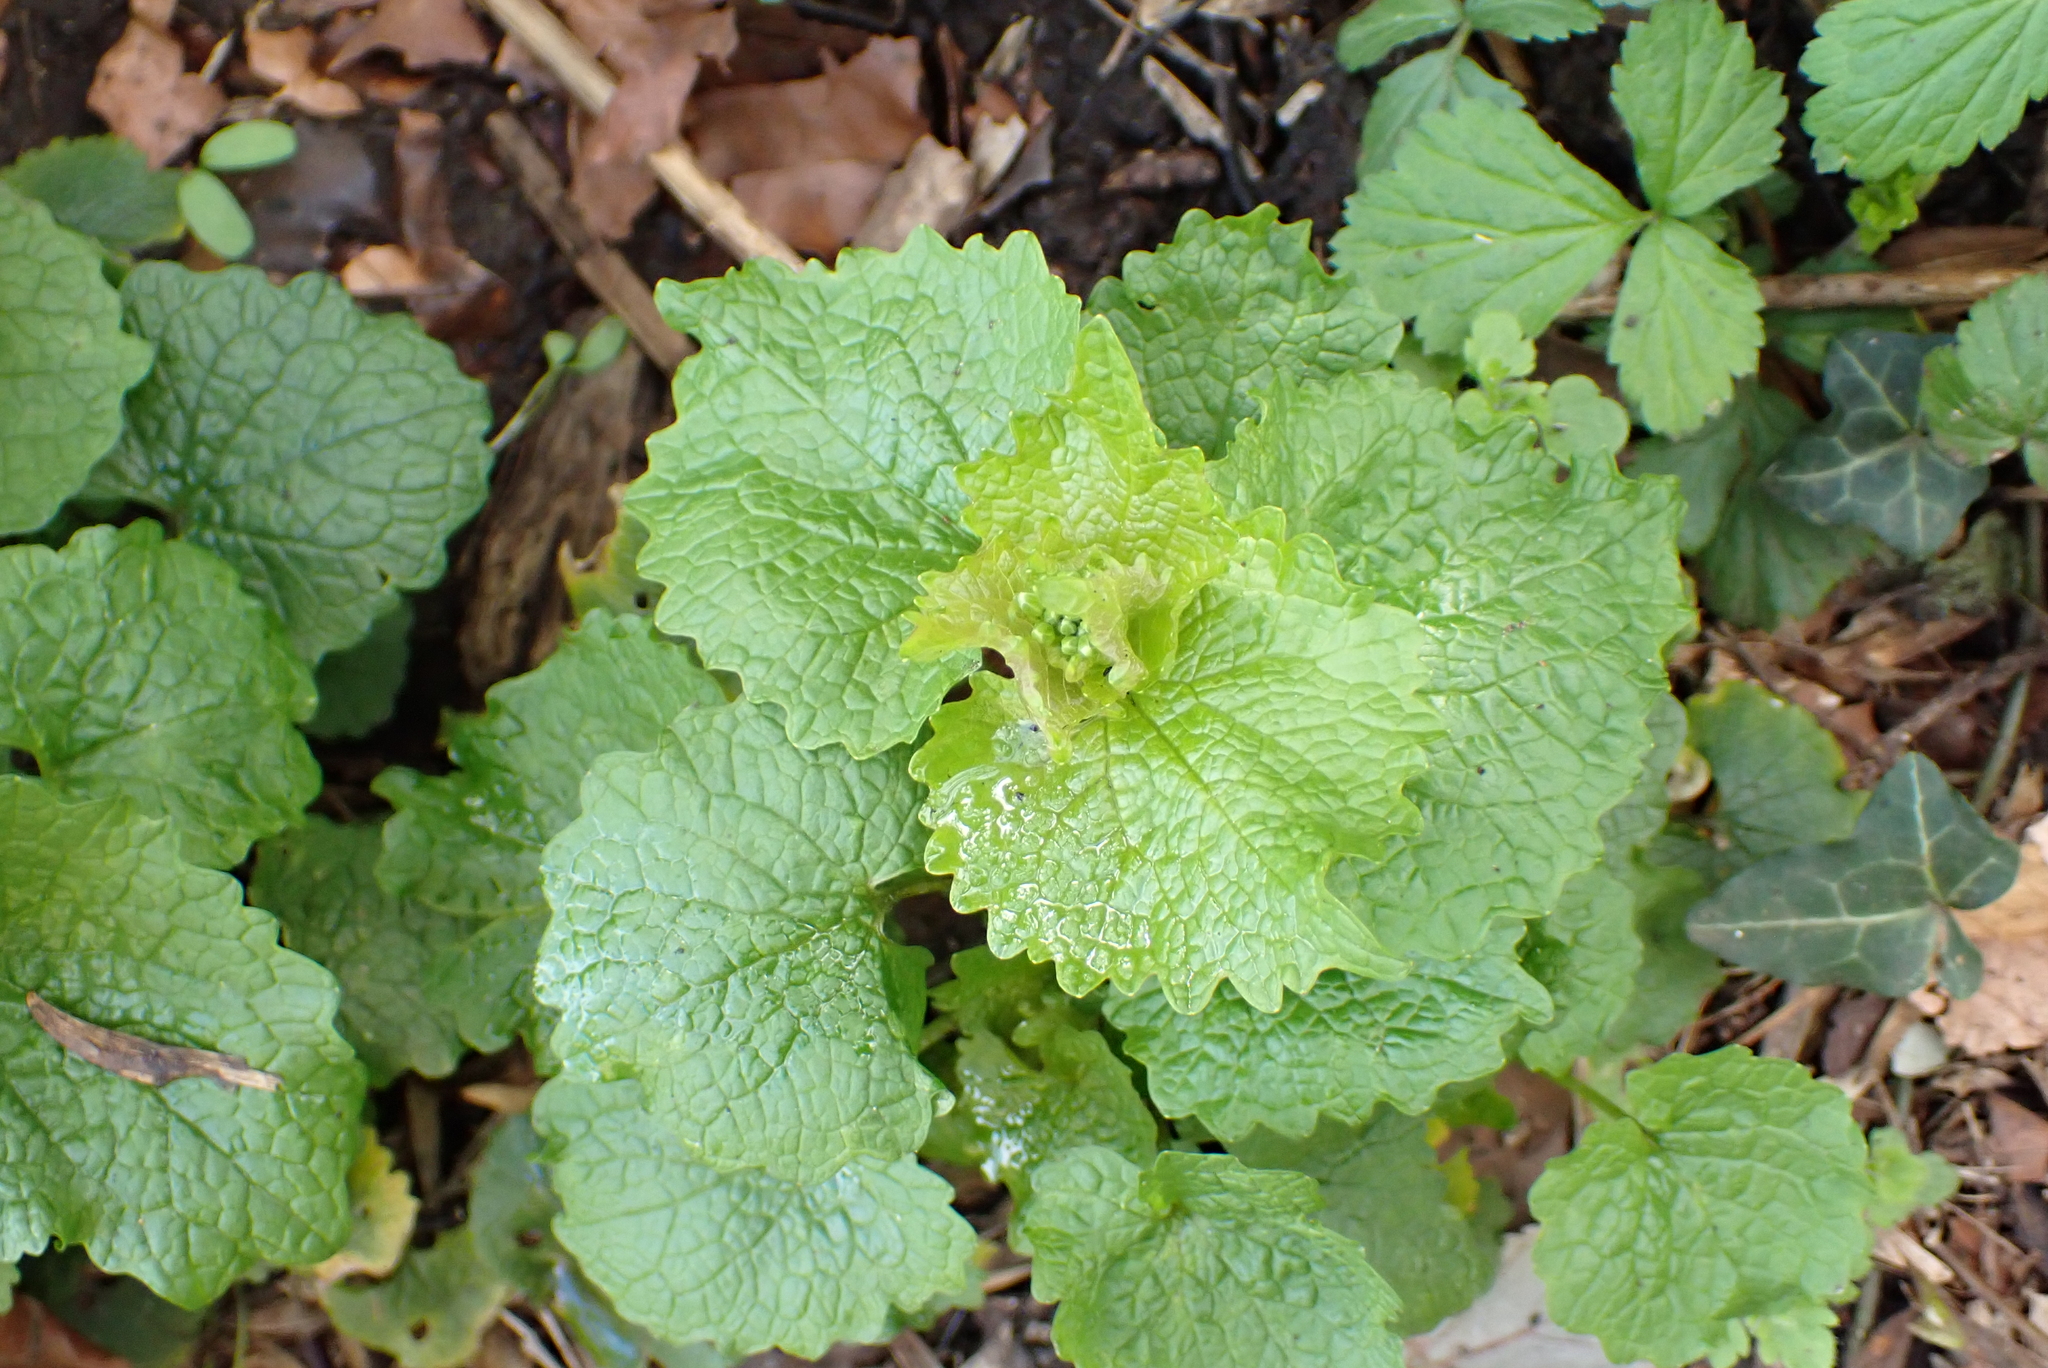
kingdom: Plantae
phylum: Tracheophyta
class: Magnoliopsida
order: Brassicales
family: Brassicaceae
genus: Alliaria
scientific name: Alliaria petiolata
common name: Garlic mustard
